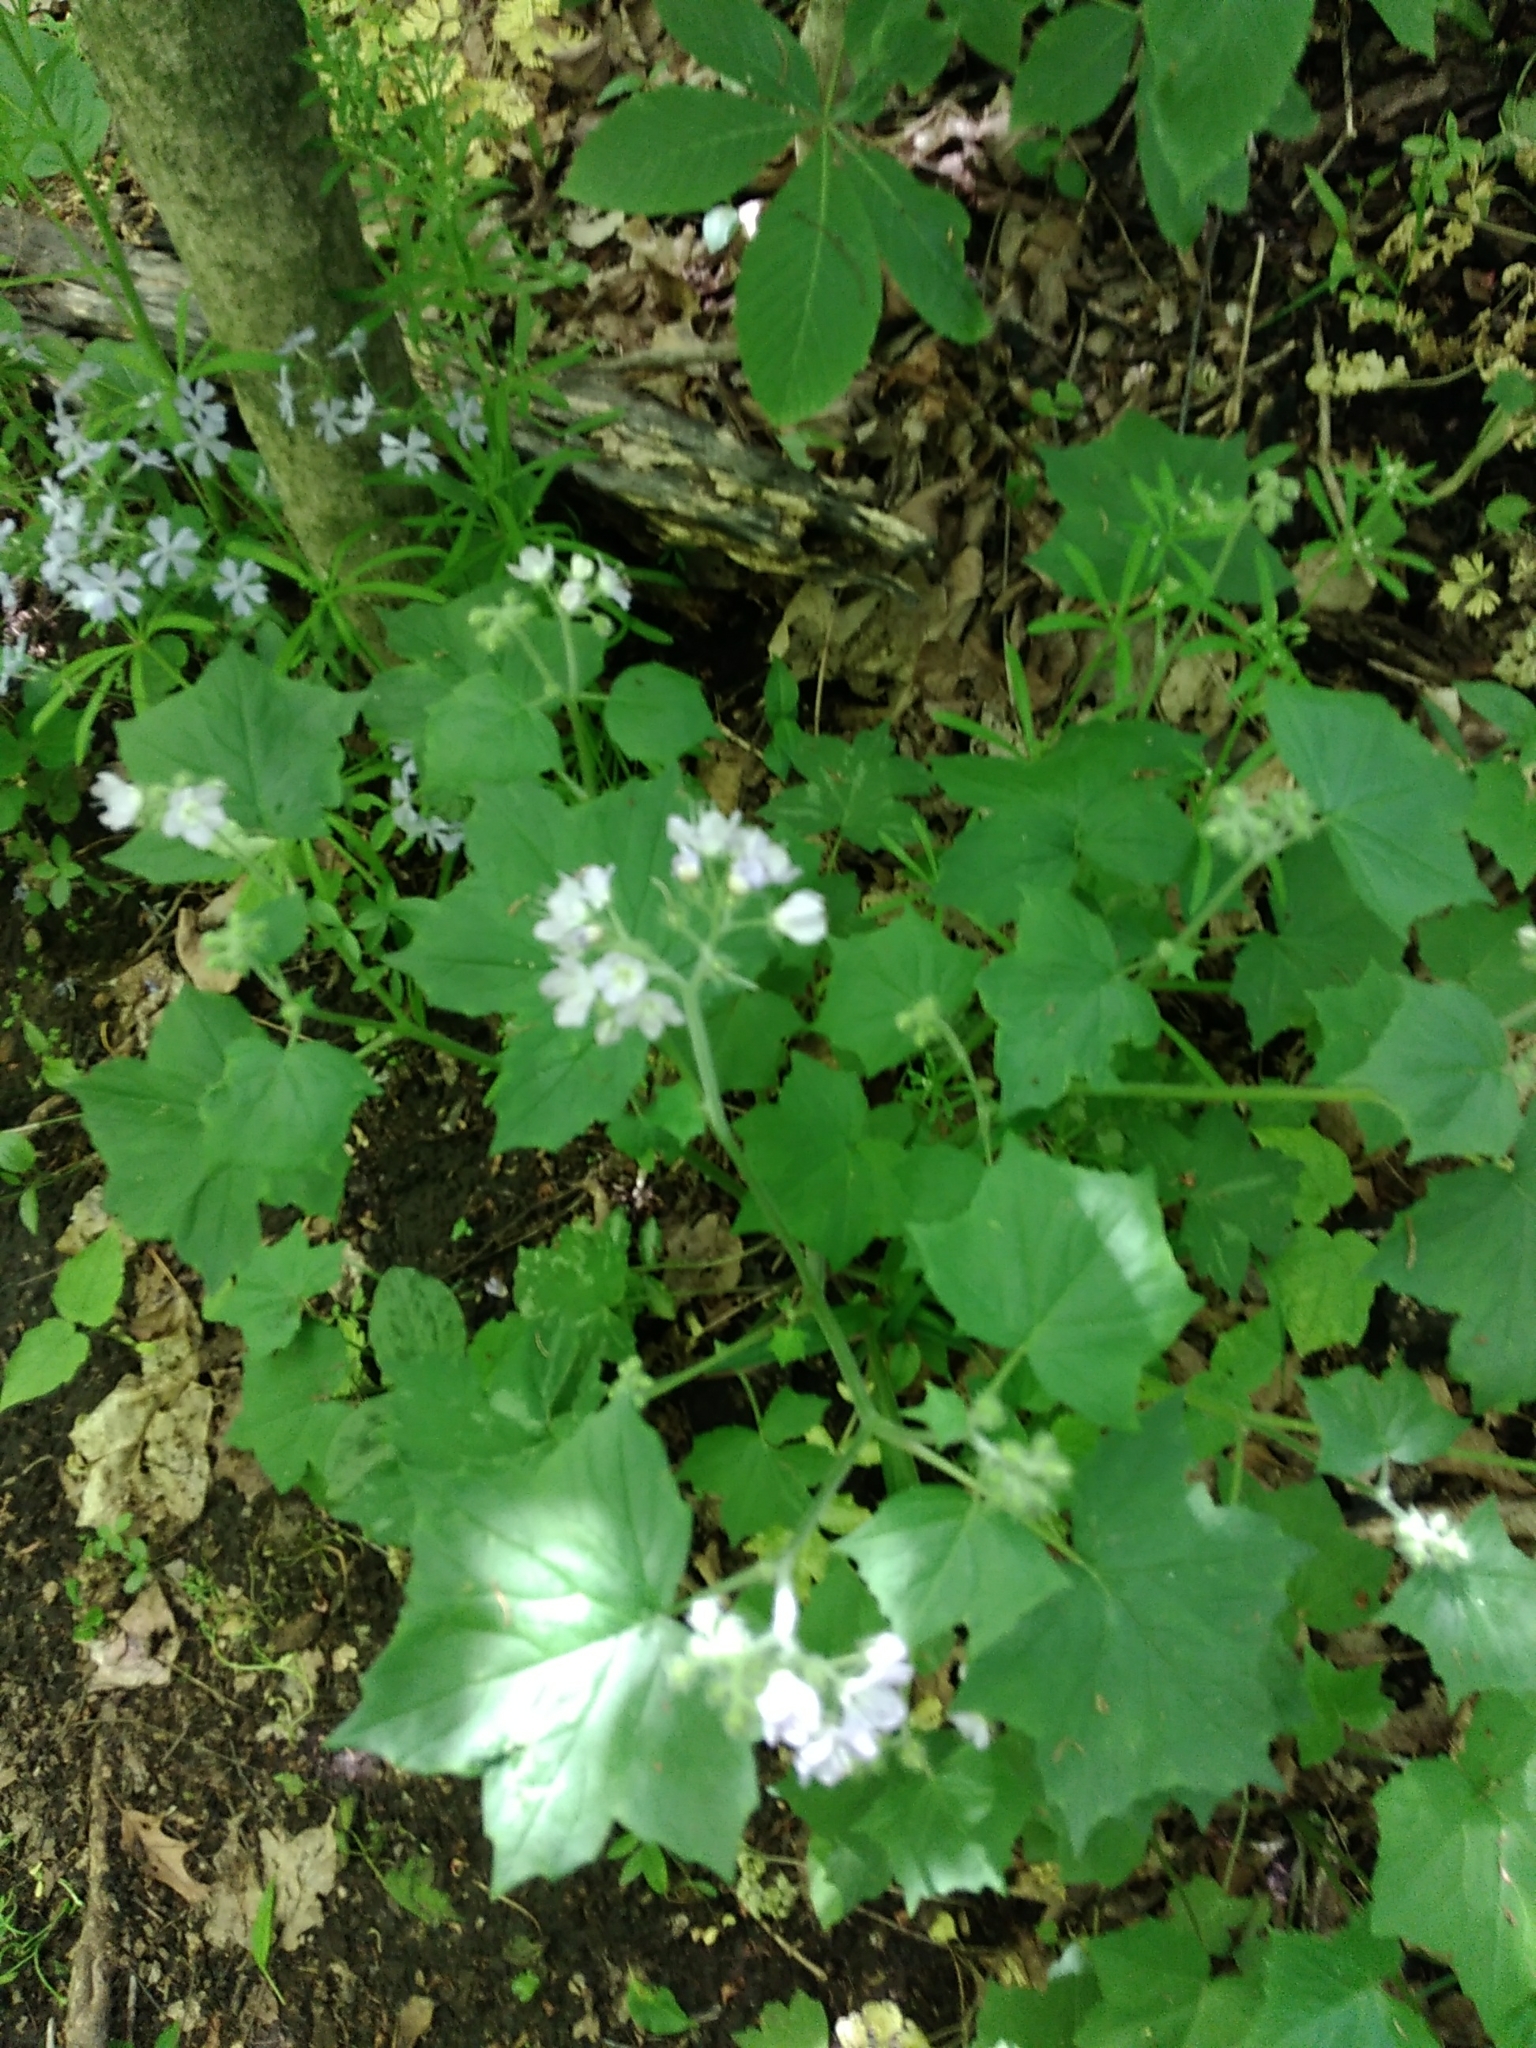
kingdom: Plantae
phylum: Tracheophyta
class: Magnoliopsida
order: Boraginales
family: Hydrophyllaceae
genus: Hydrophyllum
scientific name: Hydrophyllum appendiculatum
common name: Appendaged waterleaf
